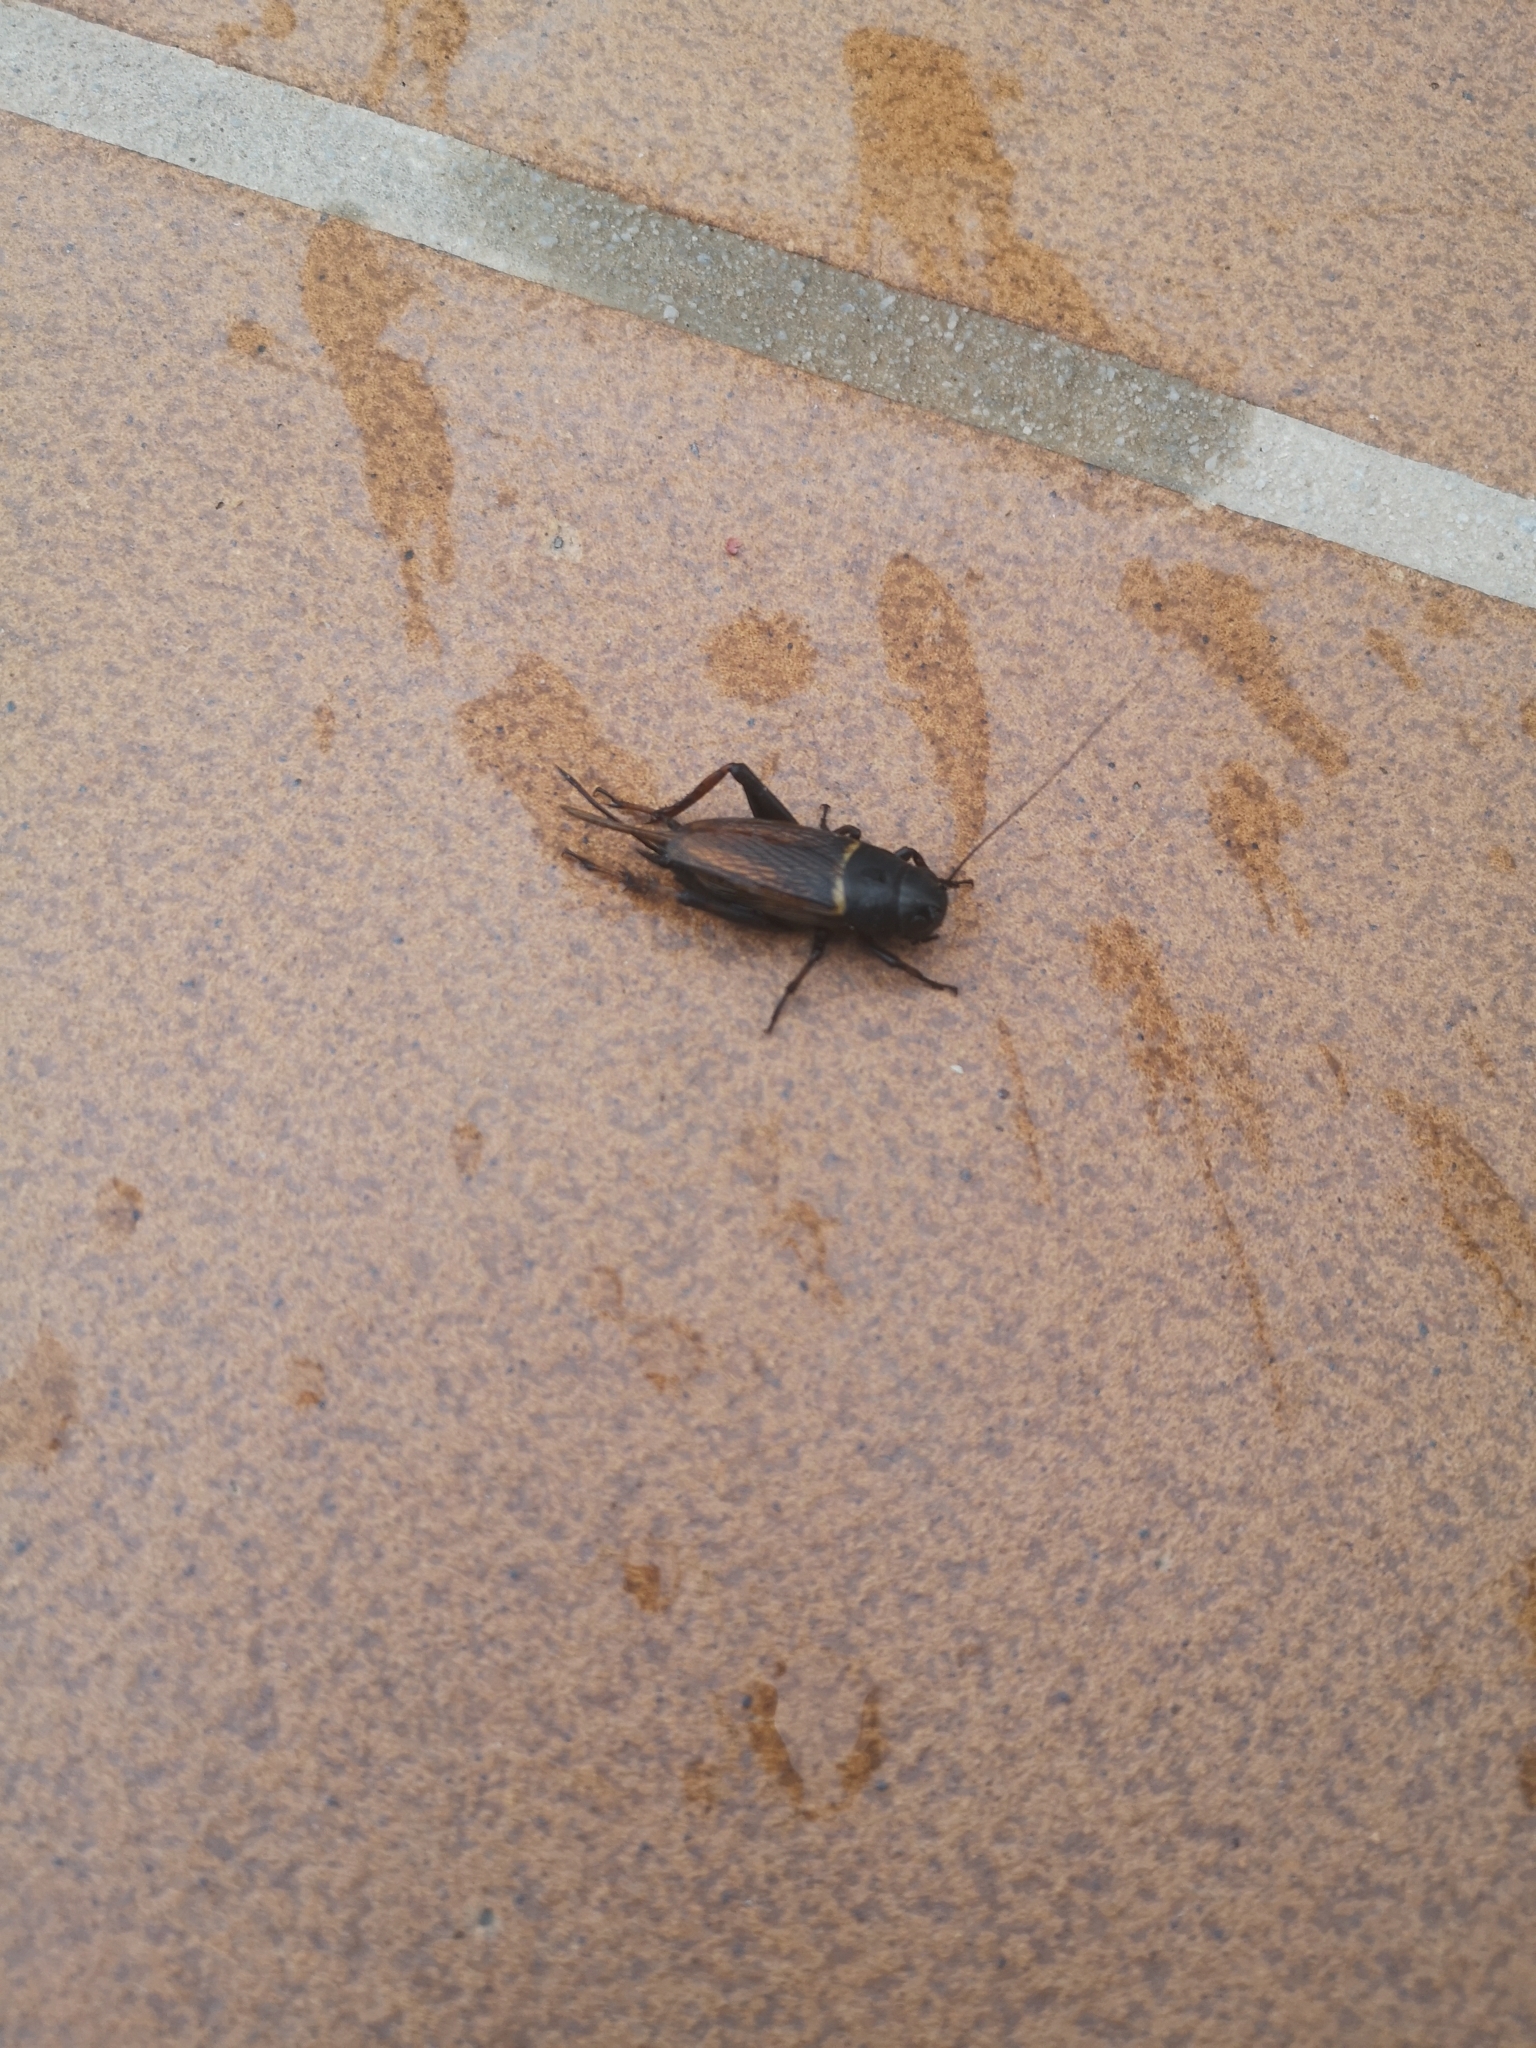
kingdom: Animalia
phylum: Arthropoda
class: Insecta
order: Orthoptera
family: Gryllidae
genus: Gryllus
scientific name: Gryllus bimaculatus
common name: Two-spotted cricket
